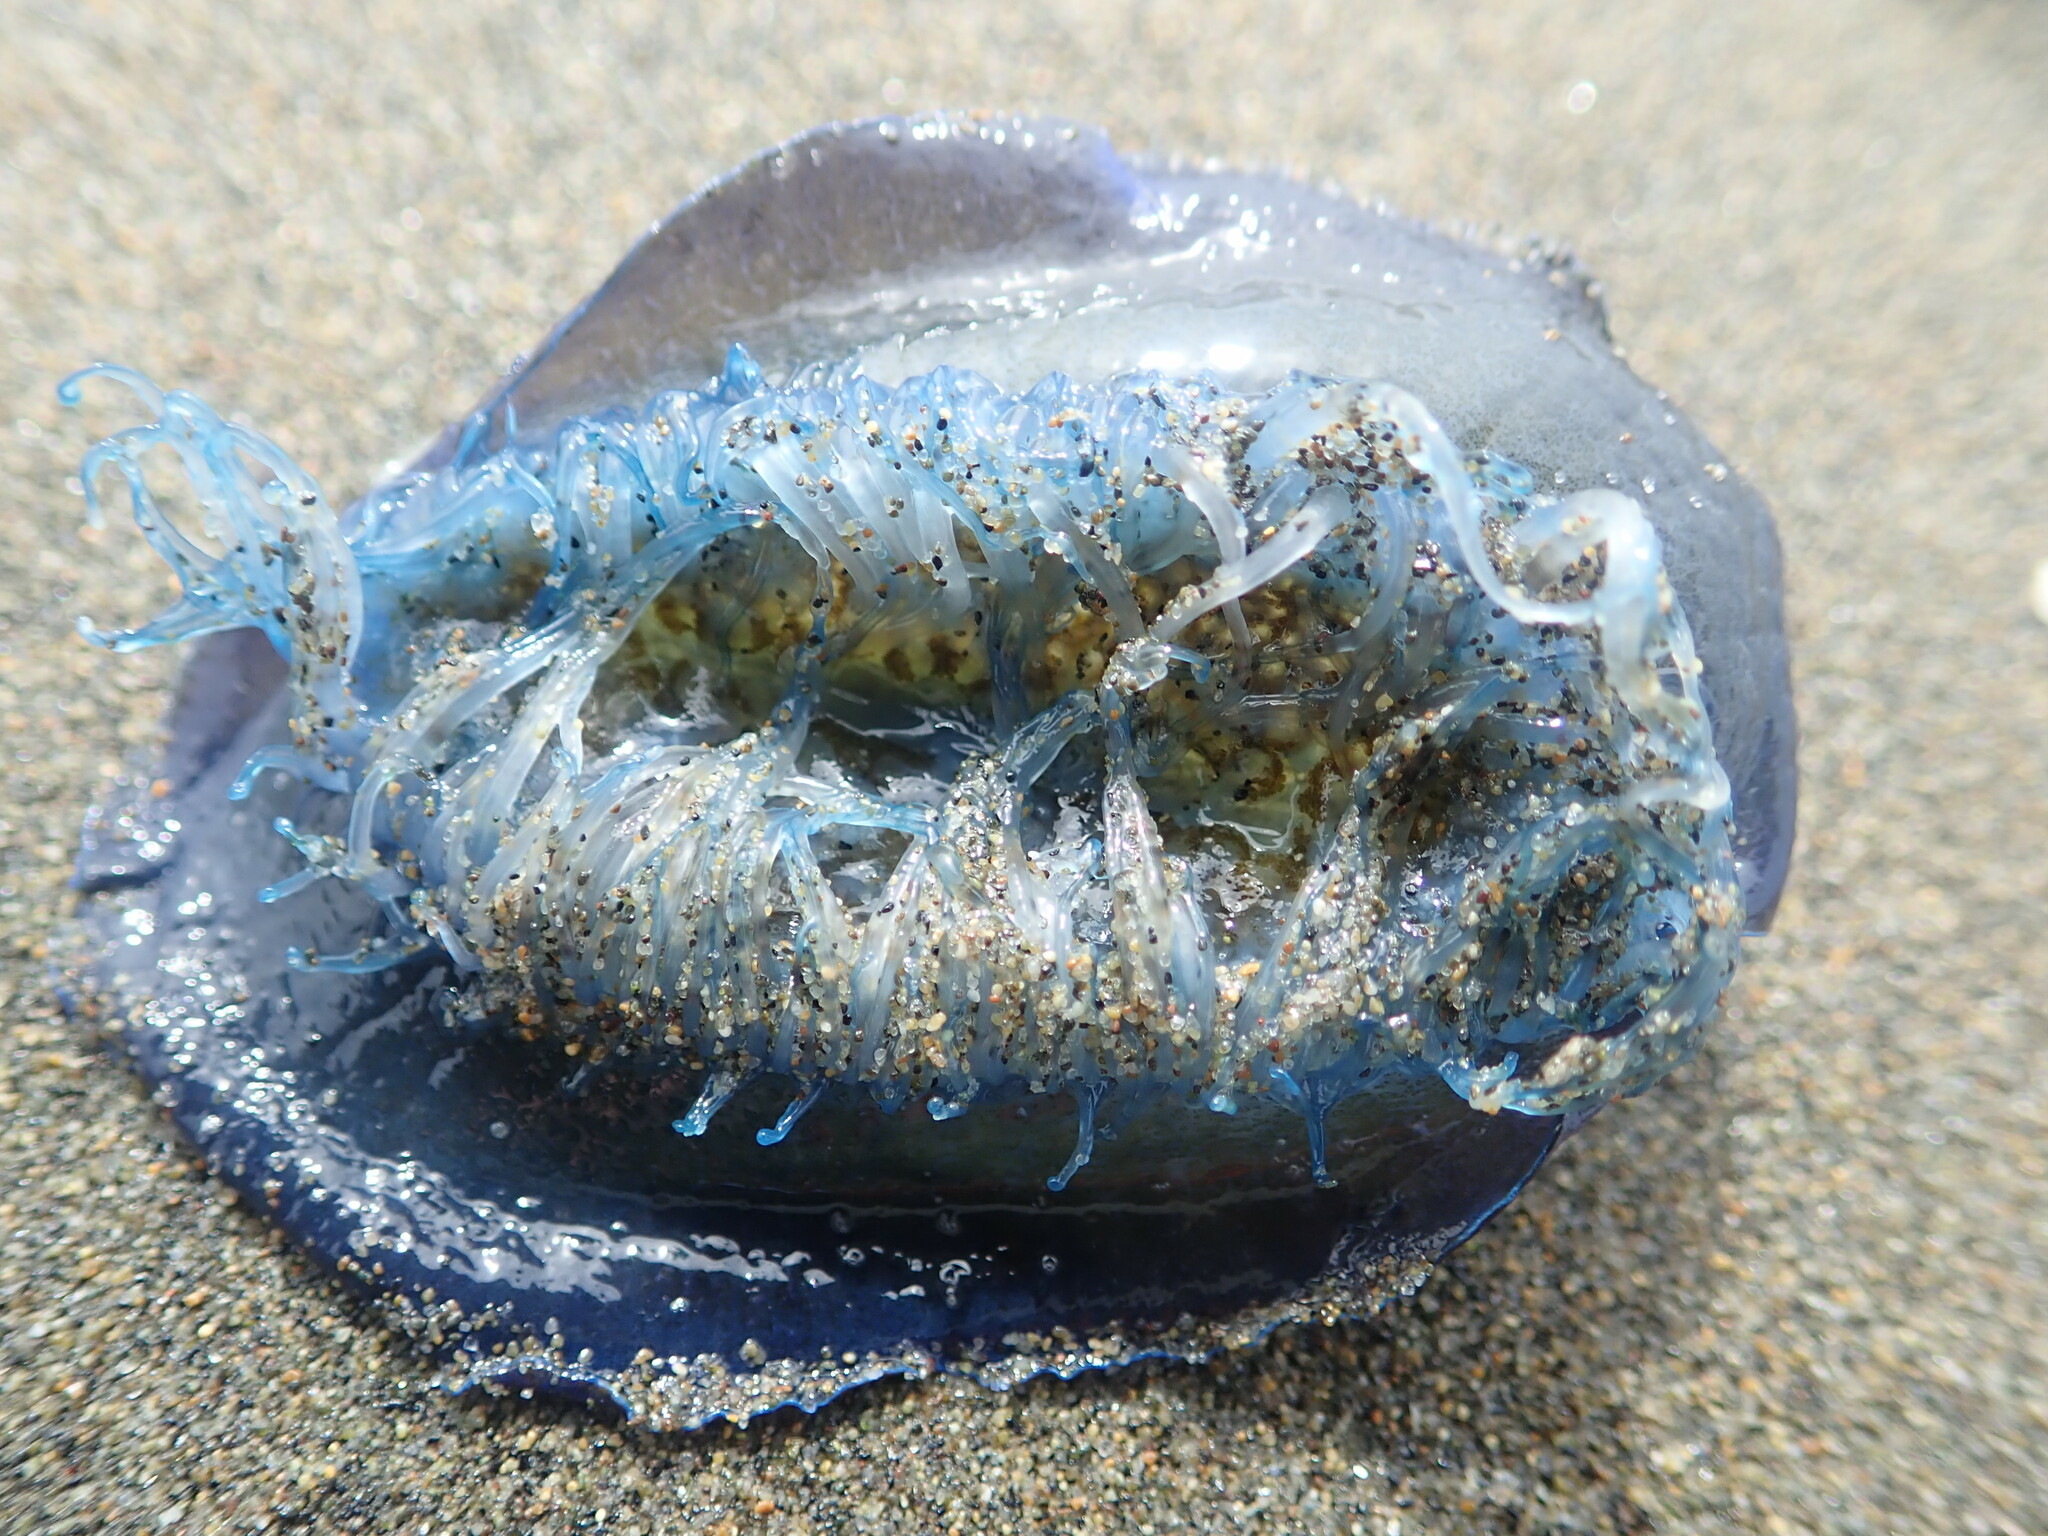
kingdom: Animalia
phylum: Cnidaria
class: Hydrozoa
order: Anthoathecata
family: Porpitidae
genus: Velella
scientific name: Velella velella
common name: By-the-wind-sailor
